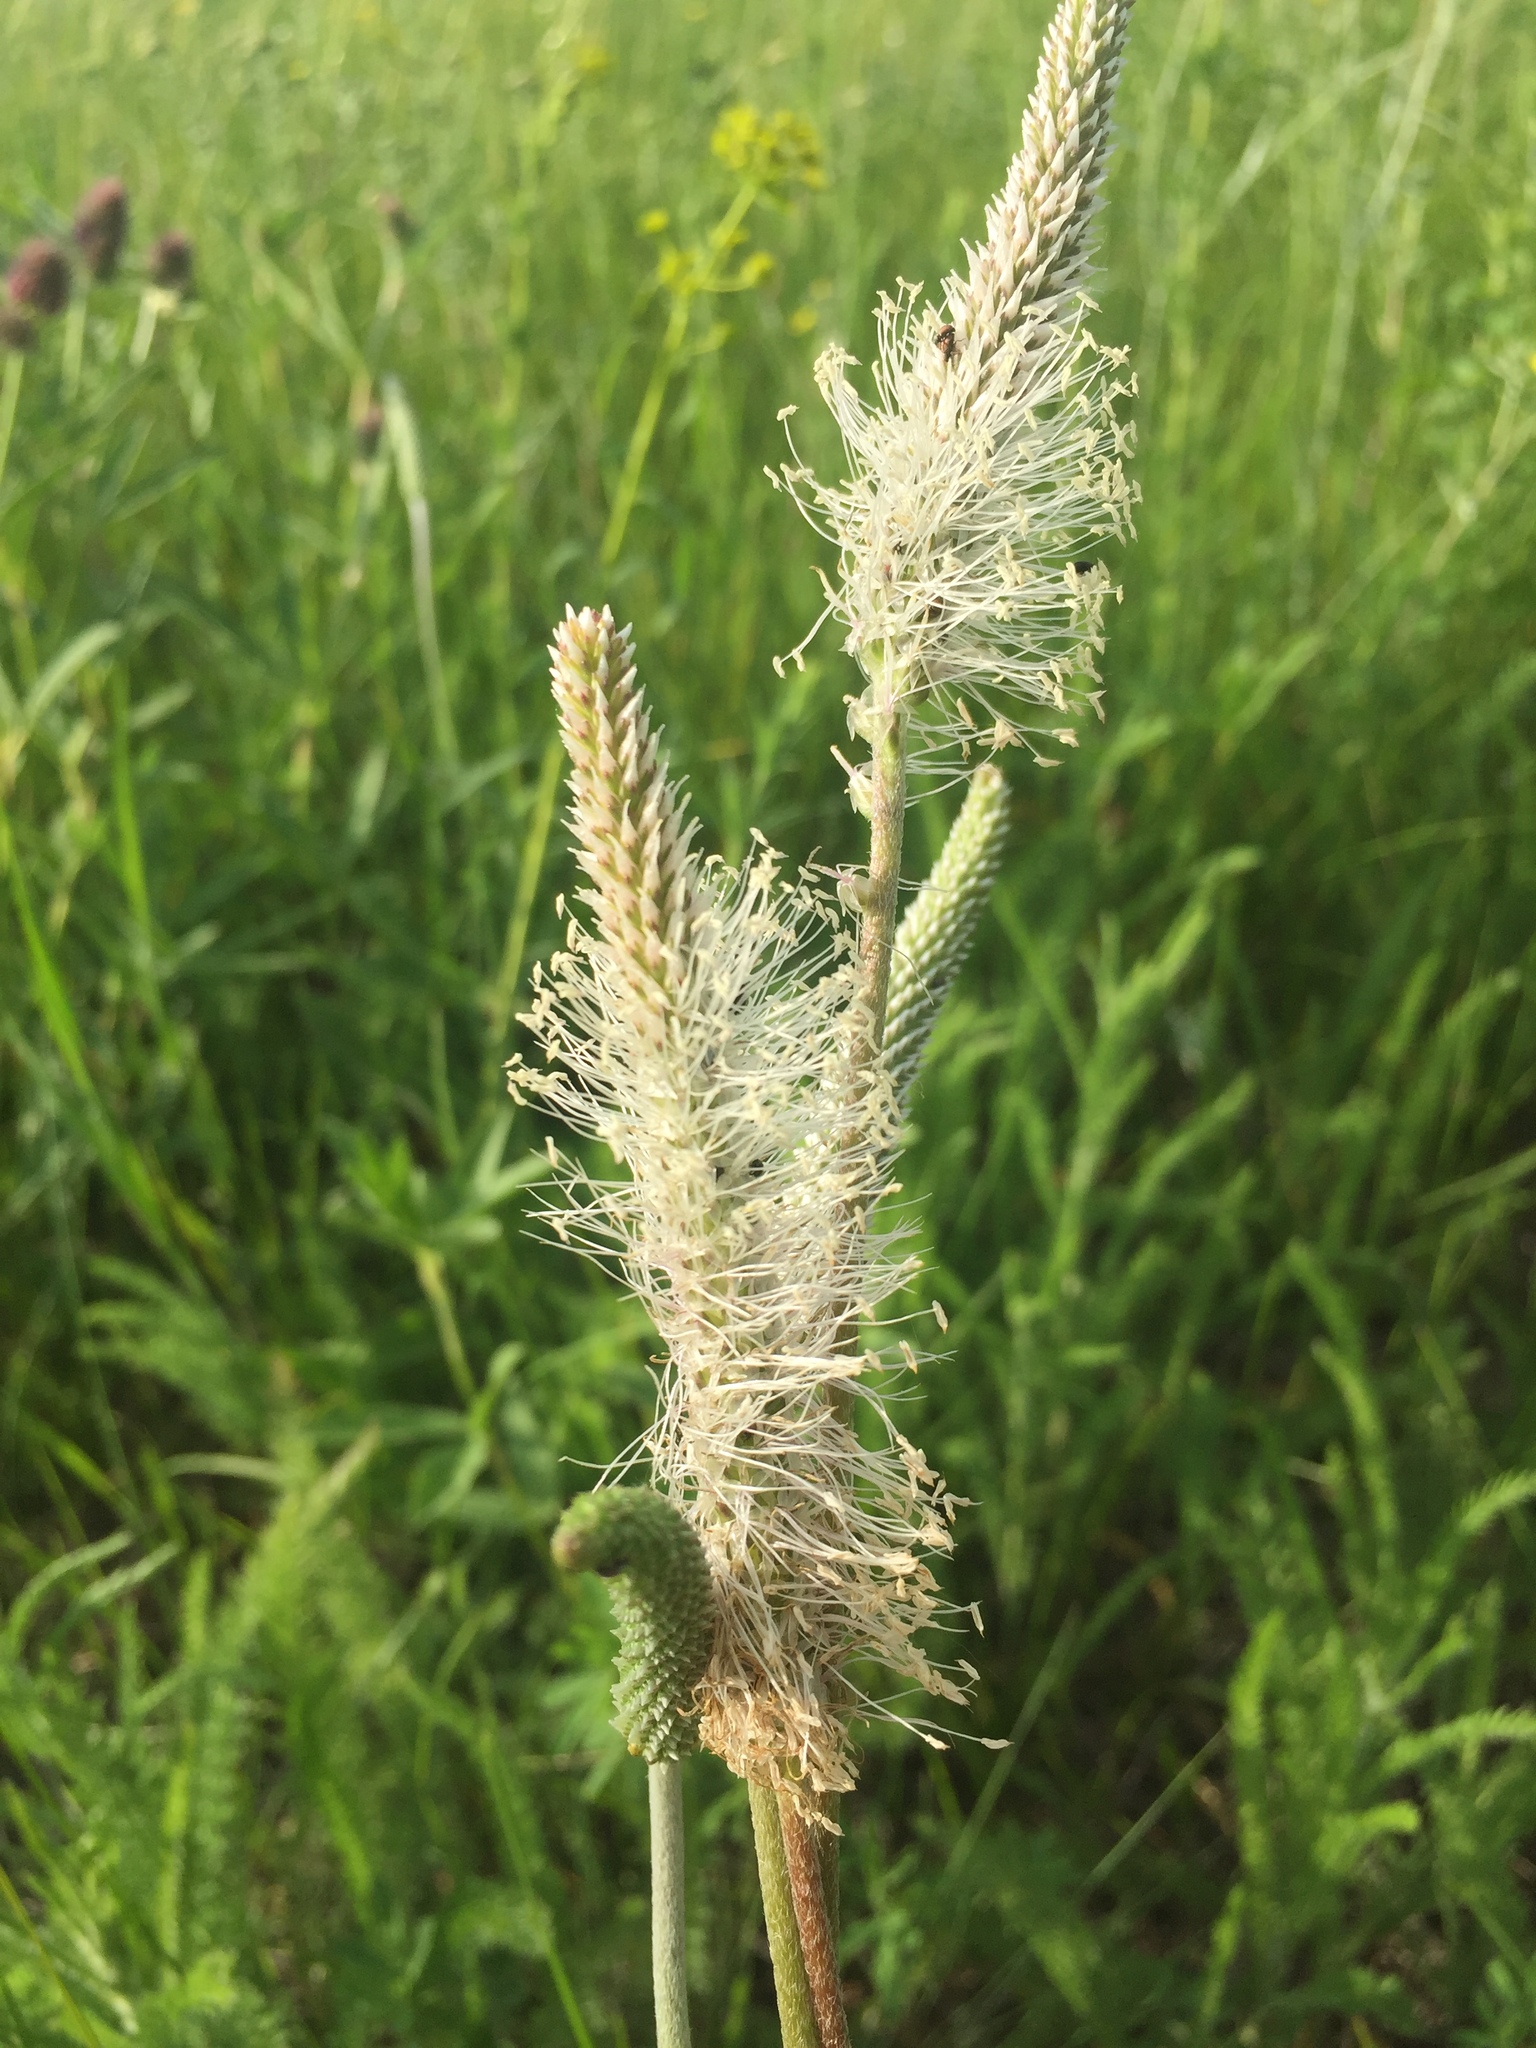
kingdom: Plantae
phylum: Tracheophyta
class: Magnoliopsida
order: Lamiales
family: Plantaginaceae
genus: Plantago
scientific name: Plantago media
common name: Hoary plantain
